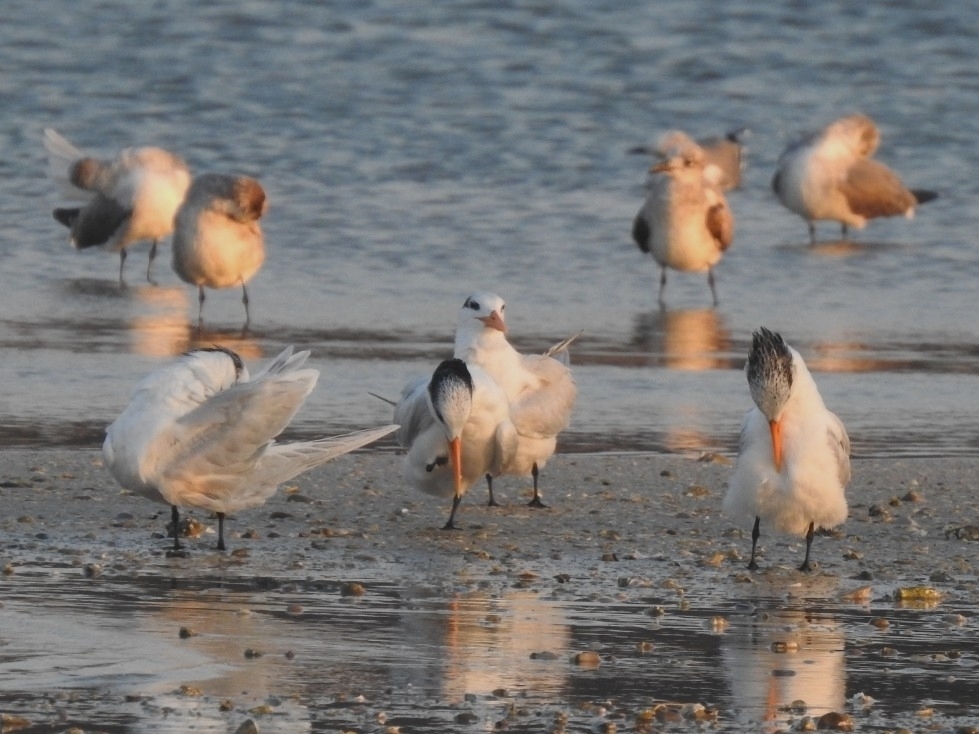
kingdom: Animalia
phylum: Chordata
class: Aves
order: Charadriiformes
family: Laridae
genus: Thalasseus
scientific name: Thalasseus maximus
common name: Royal tern
